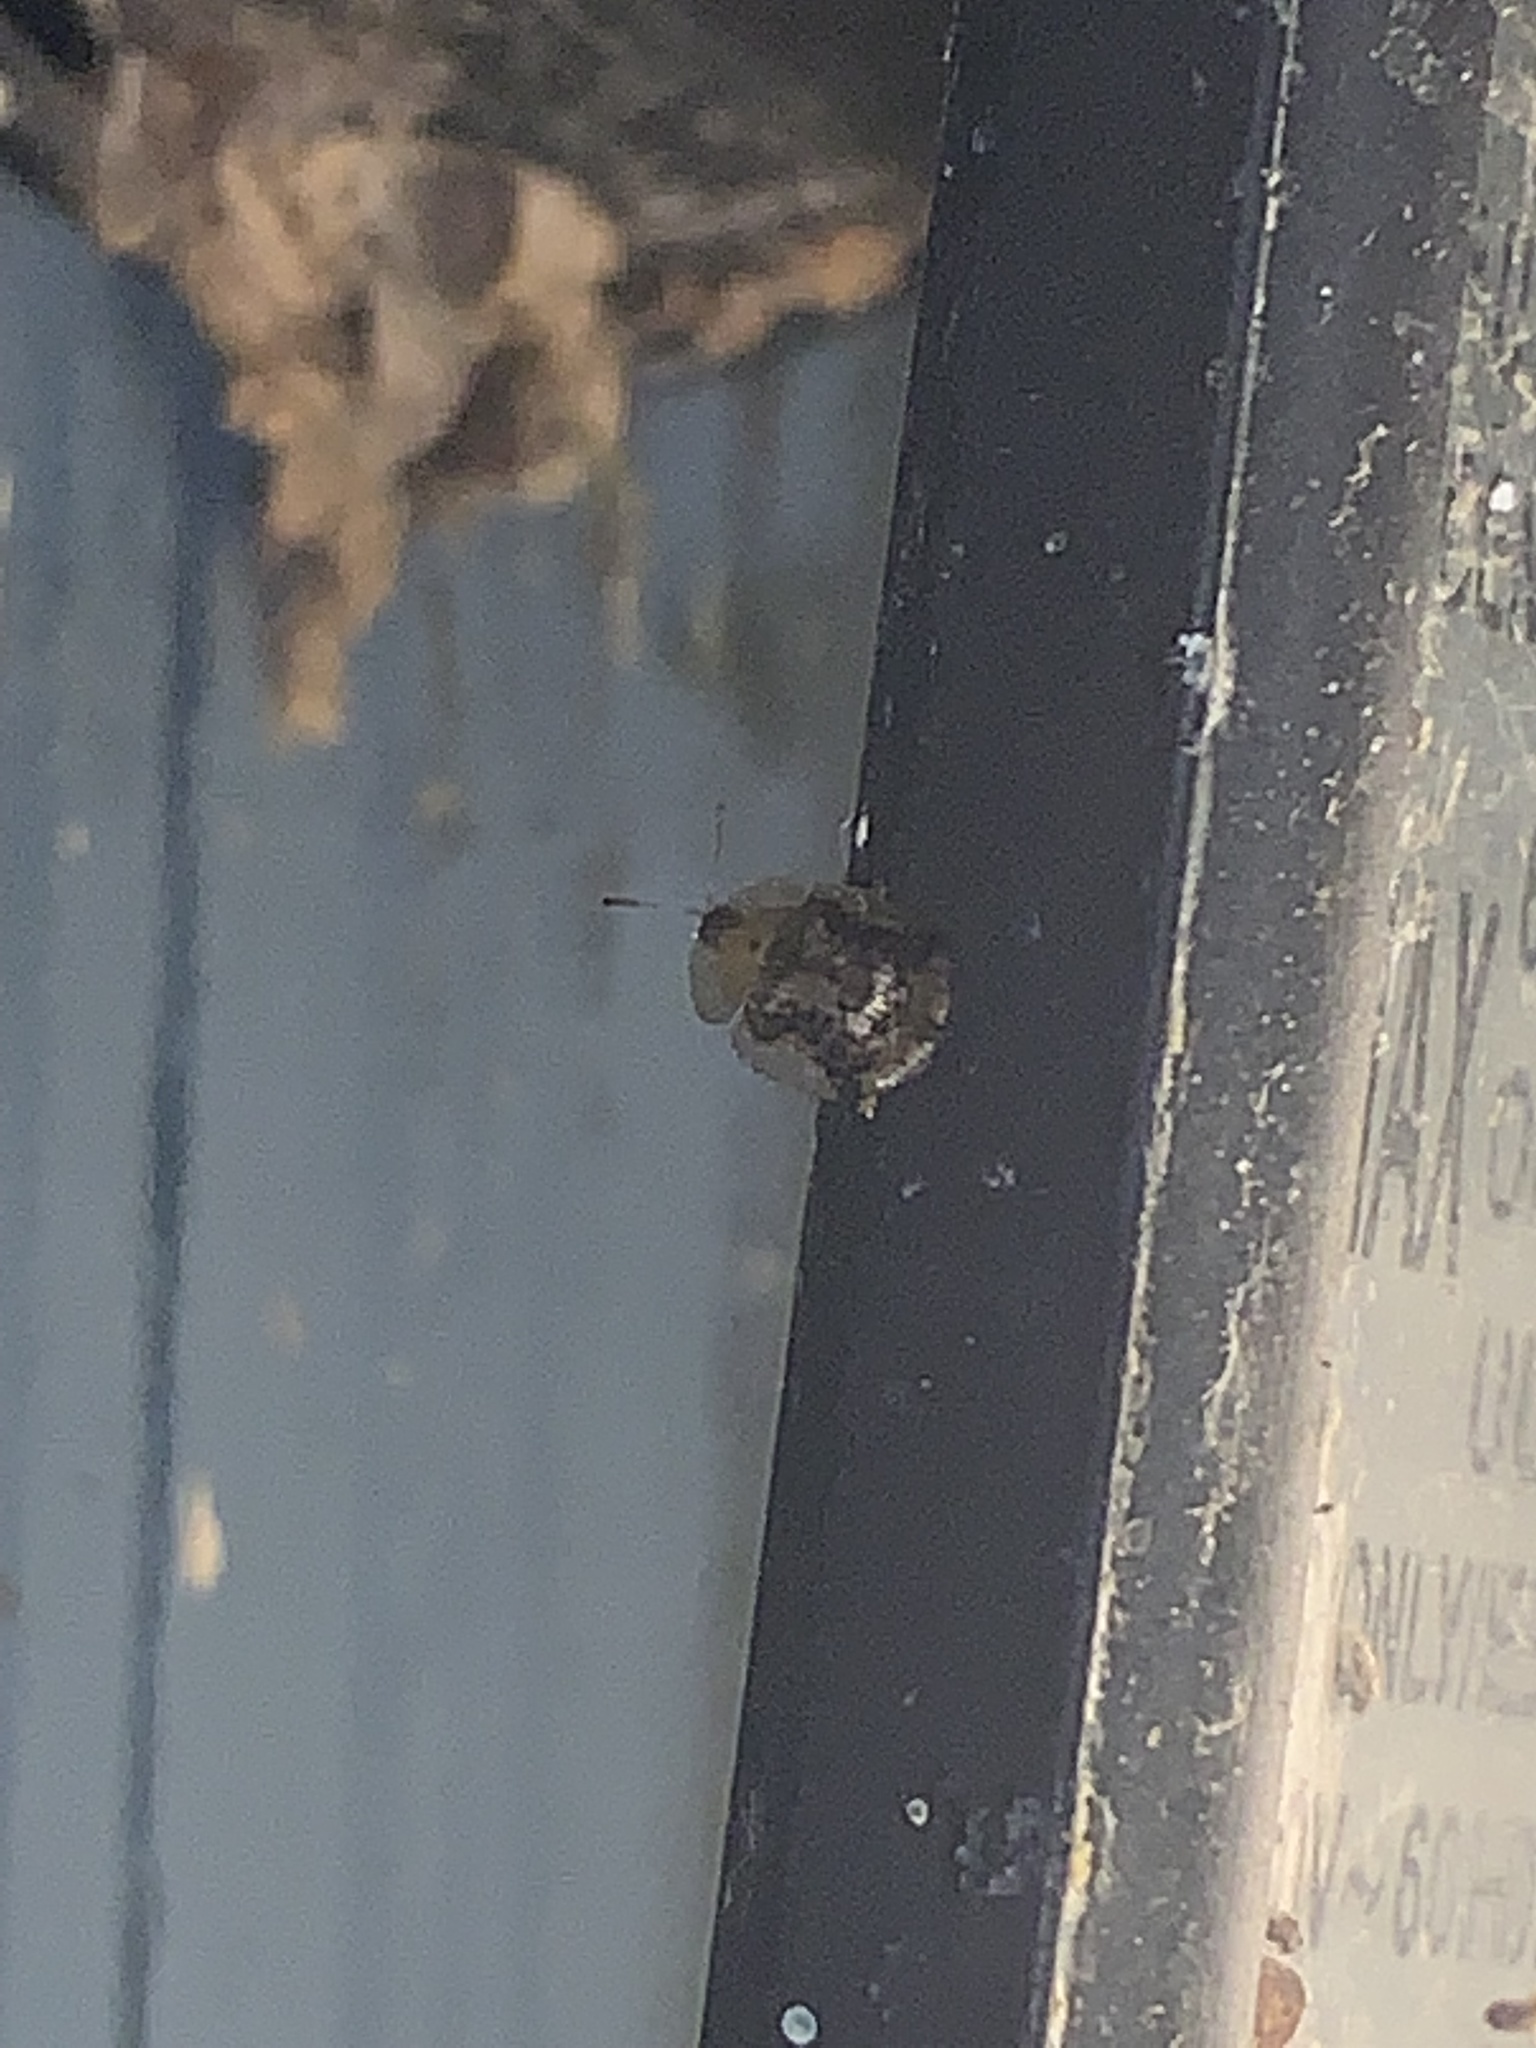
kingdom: Animalia
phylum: Arthropoda
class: Insecta
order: Coleoptera
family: Chrysomelidae
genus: Cassida
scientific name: Cassida piperata
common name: Small tortoise beetle
